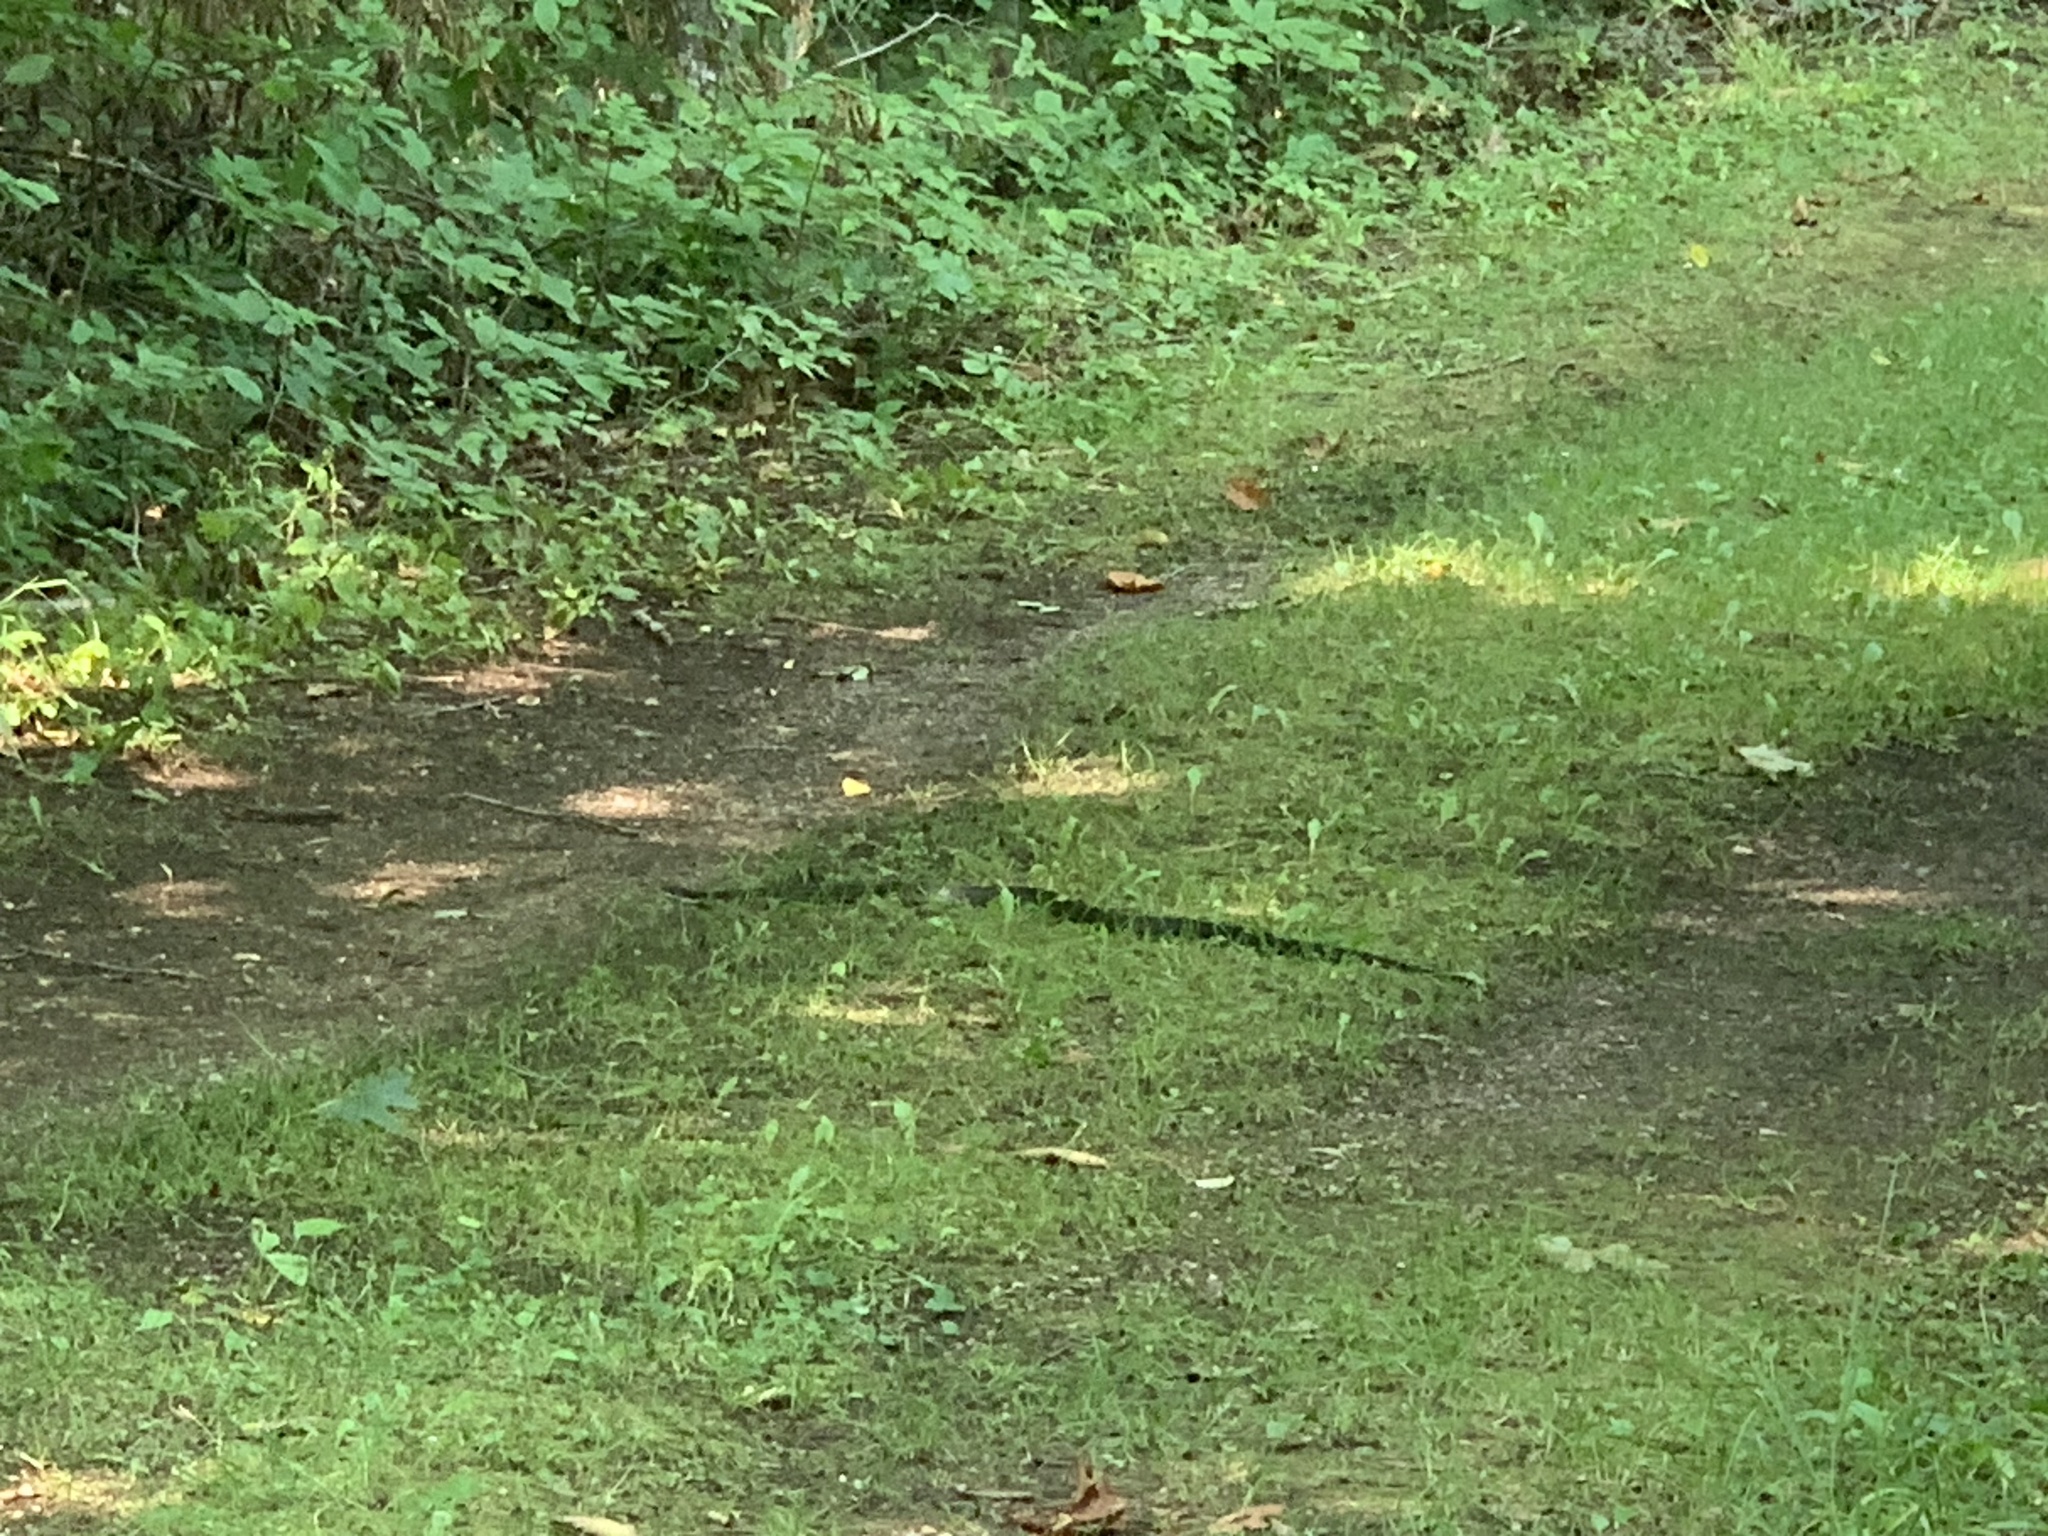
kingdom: Animalia
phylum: Chordata
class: Squamata
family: Colubridae
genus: Pantherophis
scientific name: Pantherophis spiloides
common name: Gray rat snake
